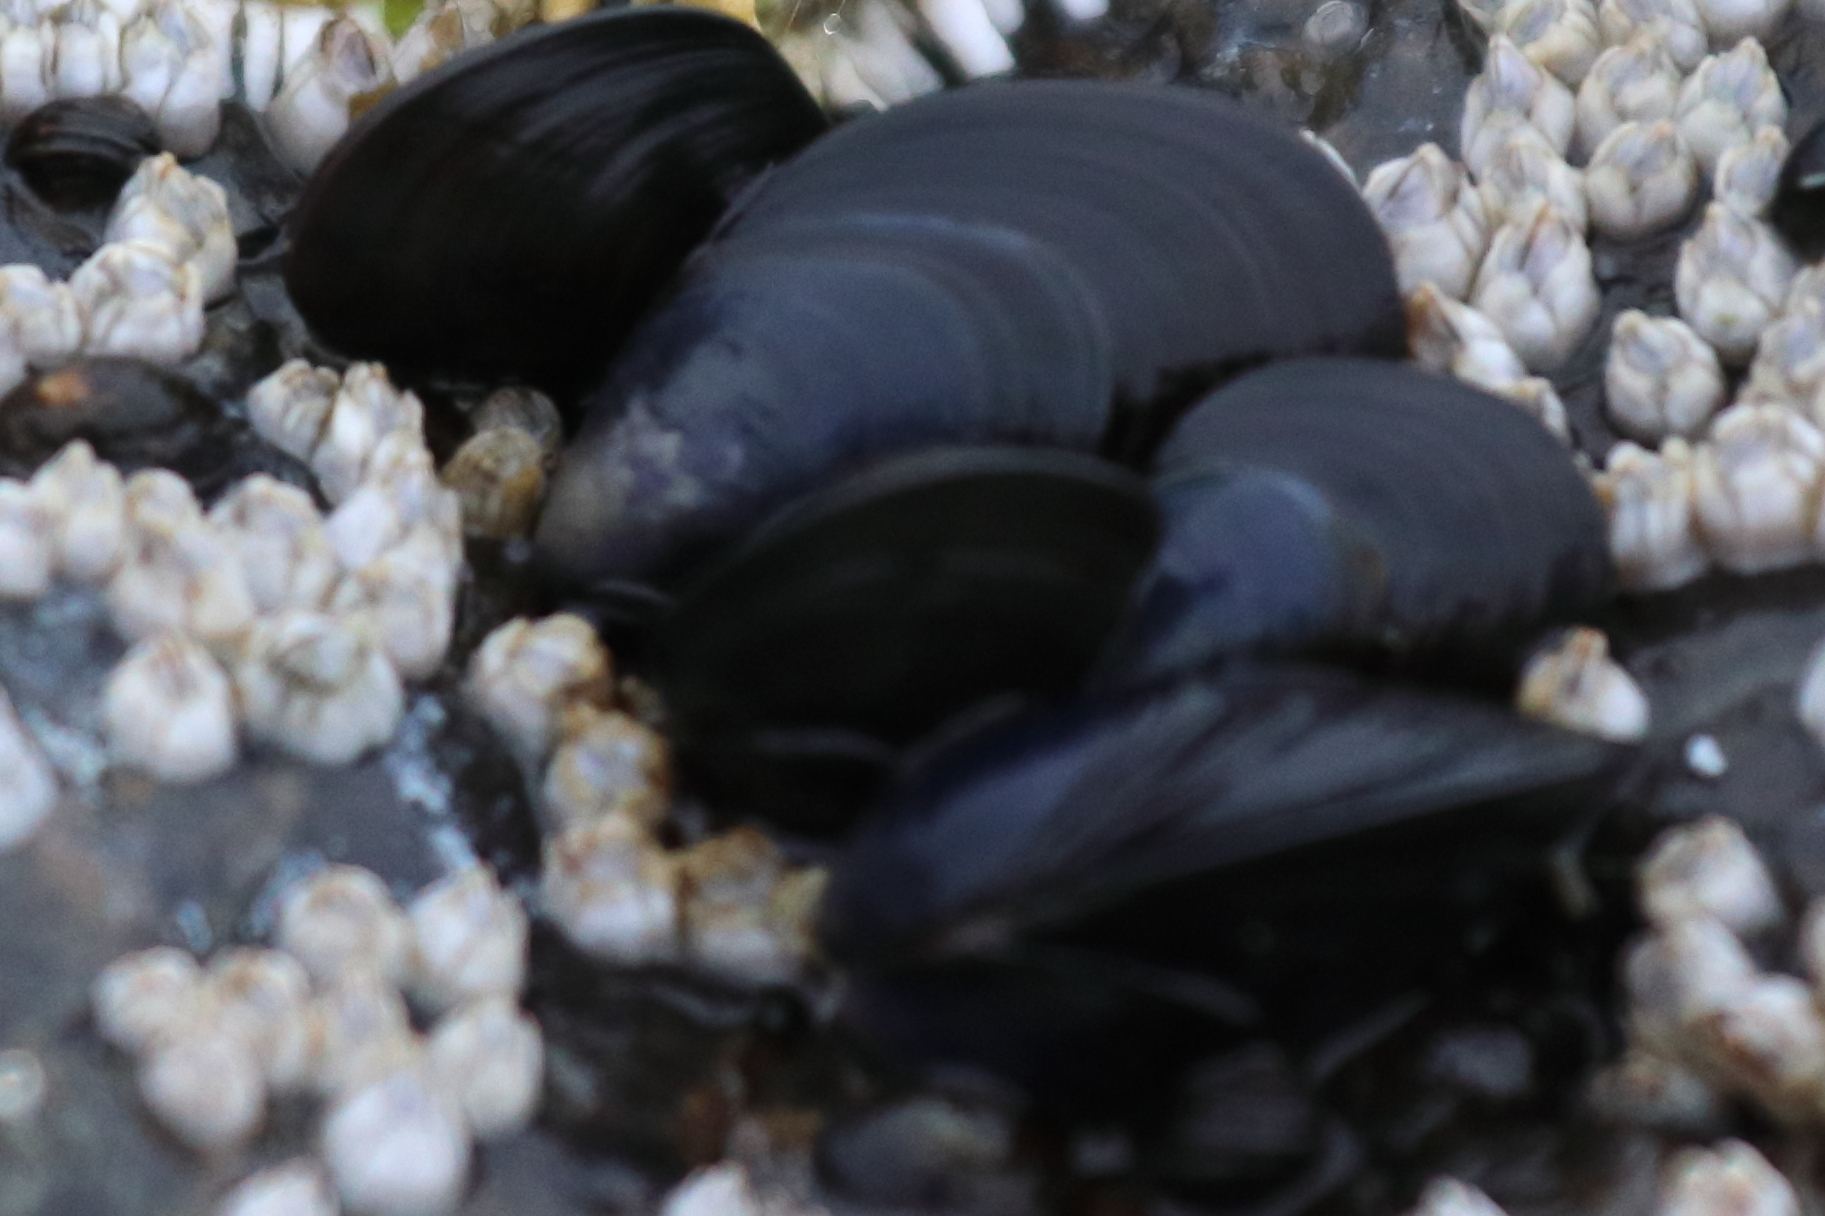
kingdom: Animalia
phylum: Mollusca
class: Bivalvia
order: Mytilida
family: Mytilidae
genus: Mytilus
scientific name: Mytilus trossulus
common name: Northern blue mussel
